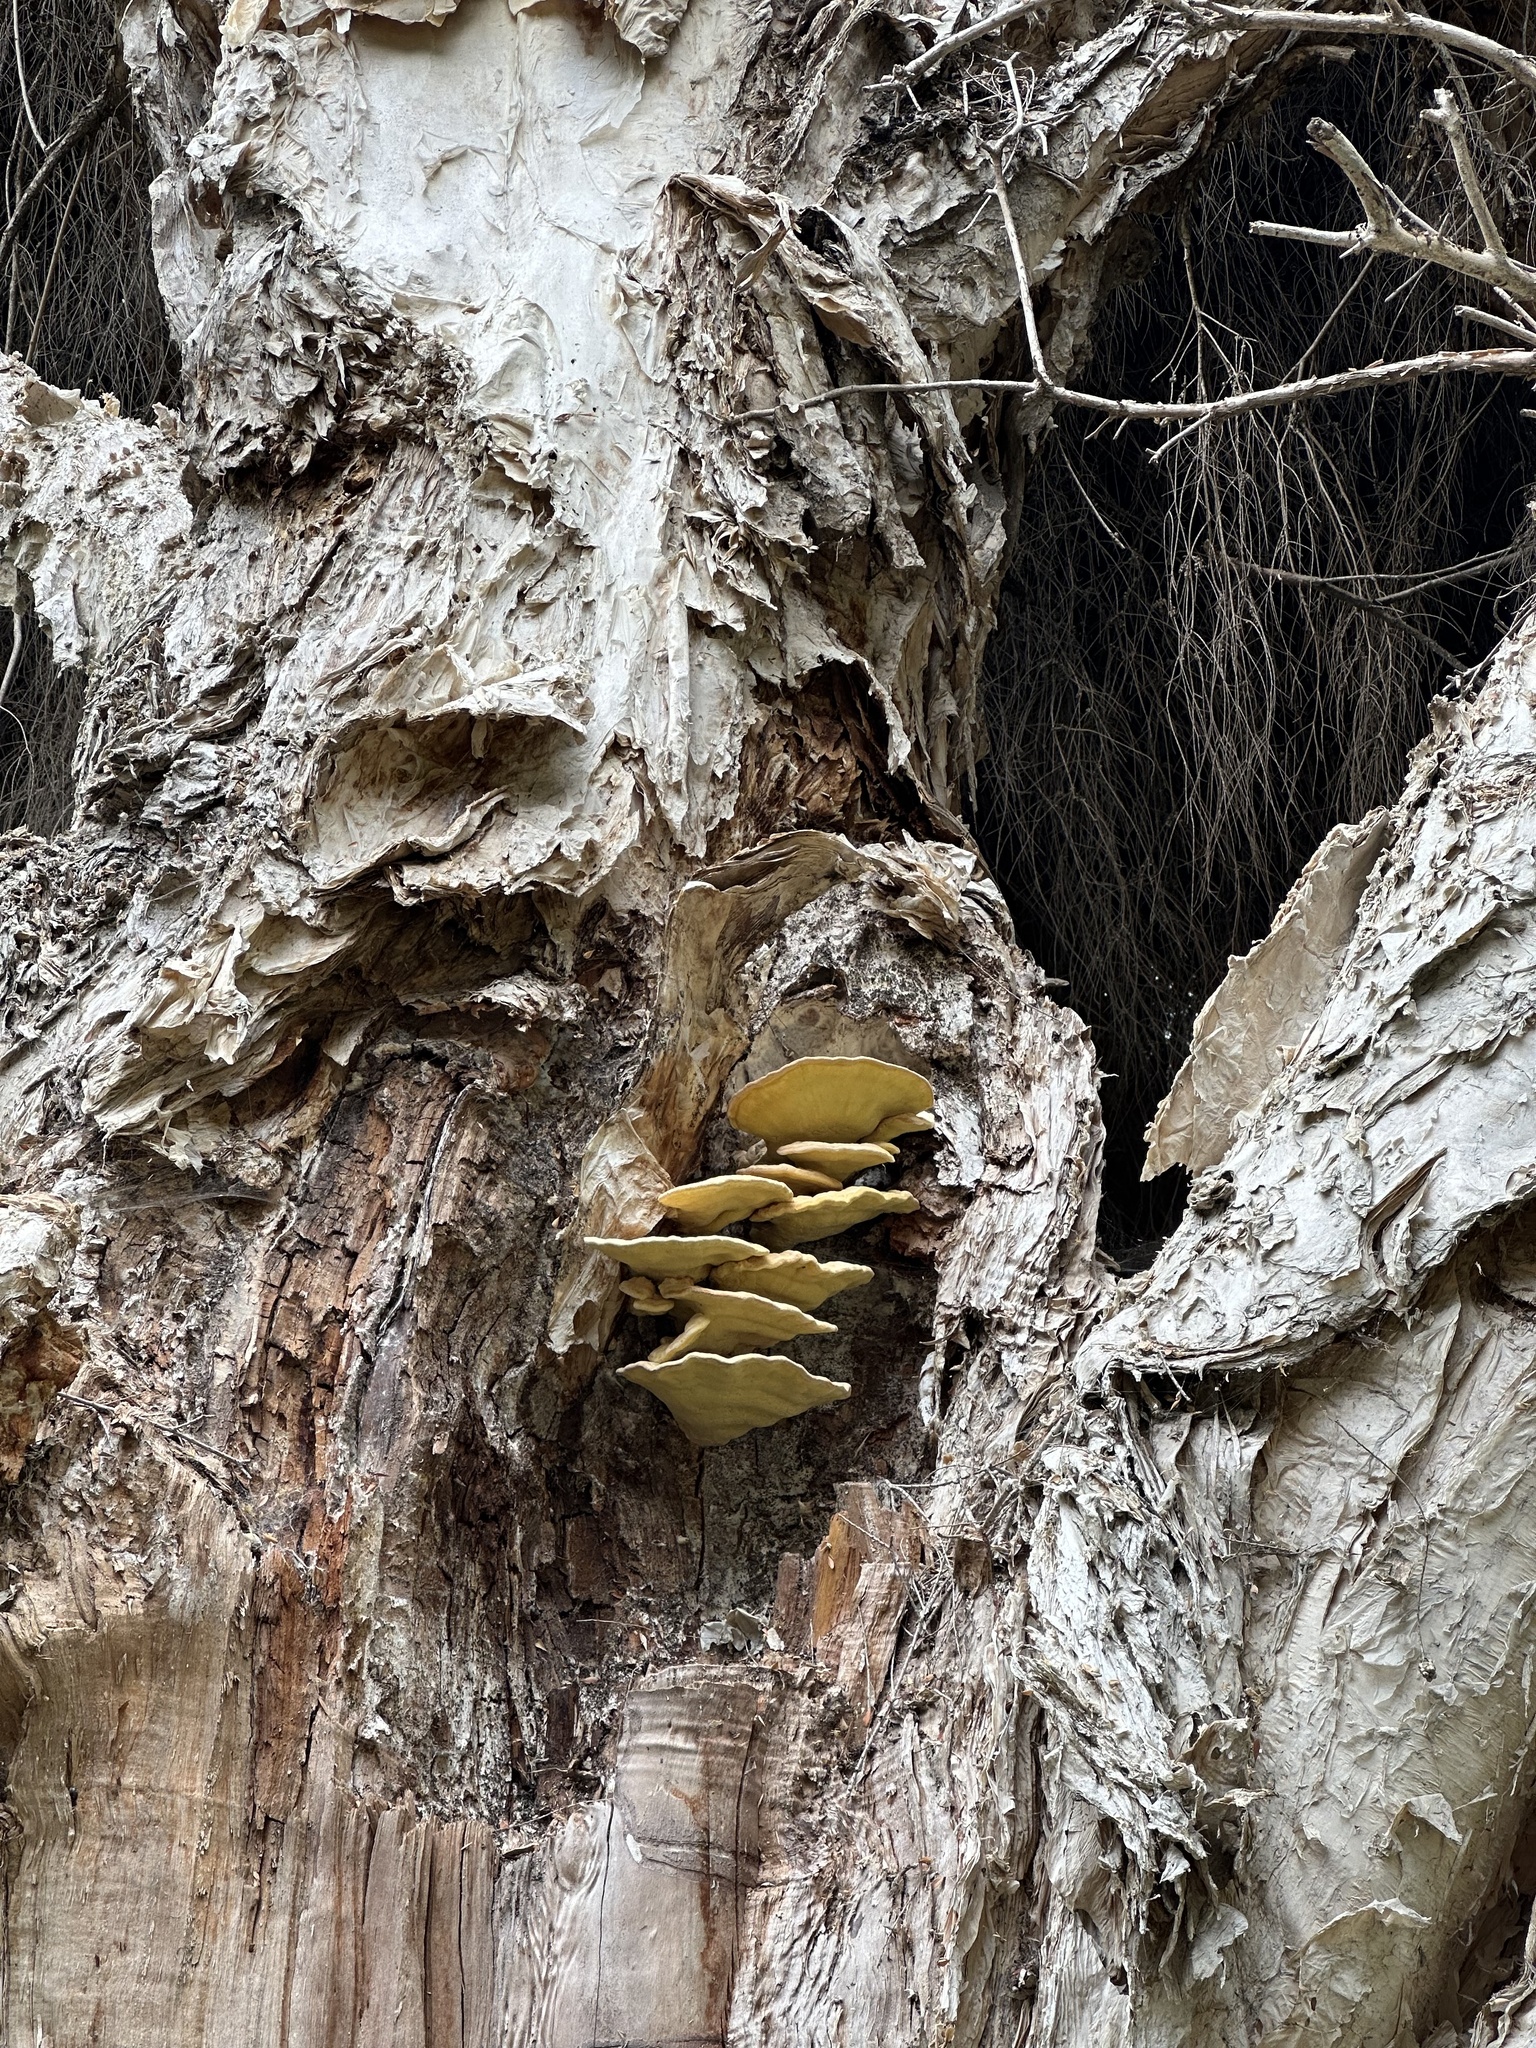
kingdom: Fungi
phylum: Basidiomycota
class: Agaricomycetes
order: Polyporales
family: Laetiporaceae
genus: Laetiporus
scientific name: Laetiporus gilbertsonii
